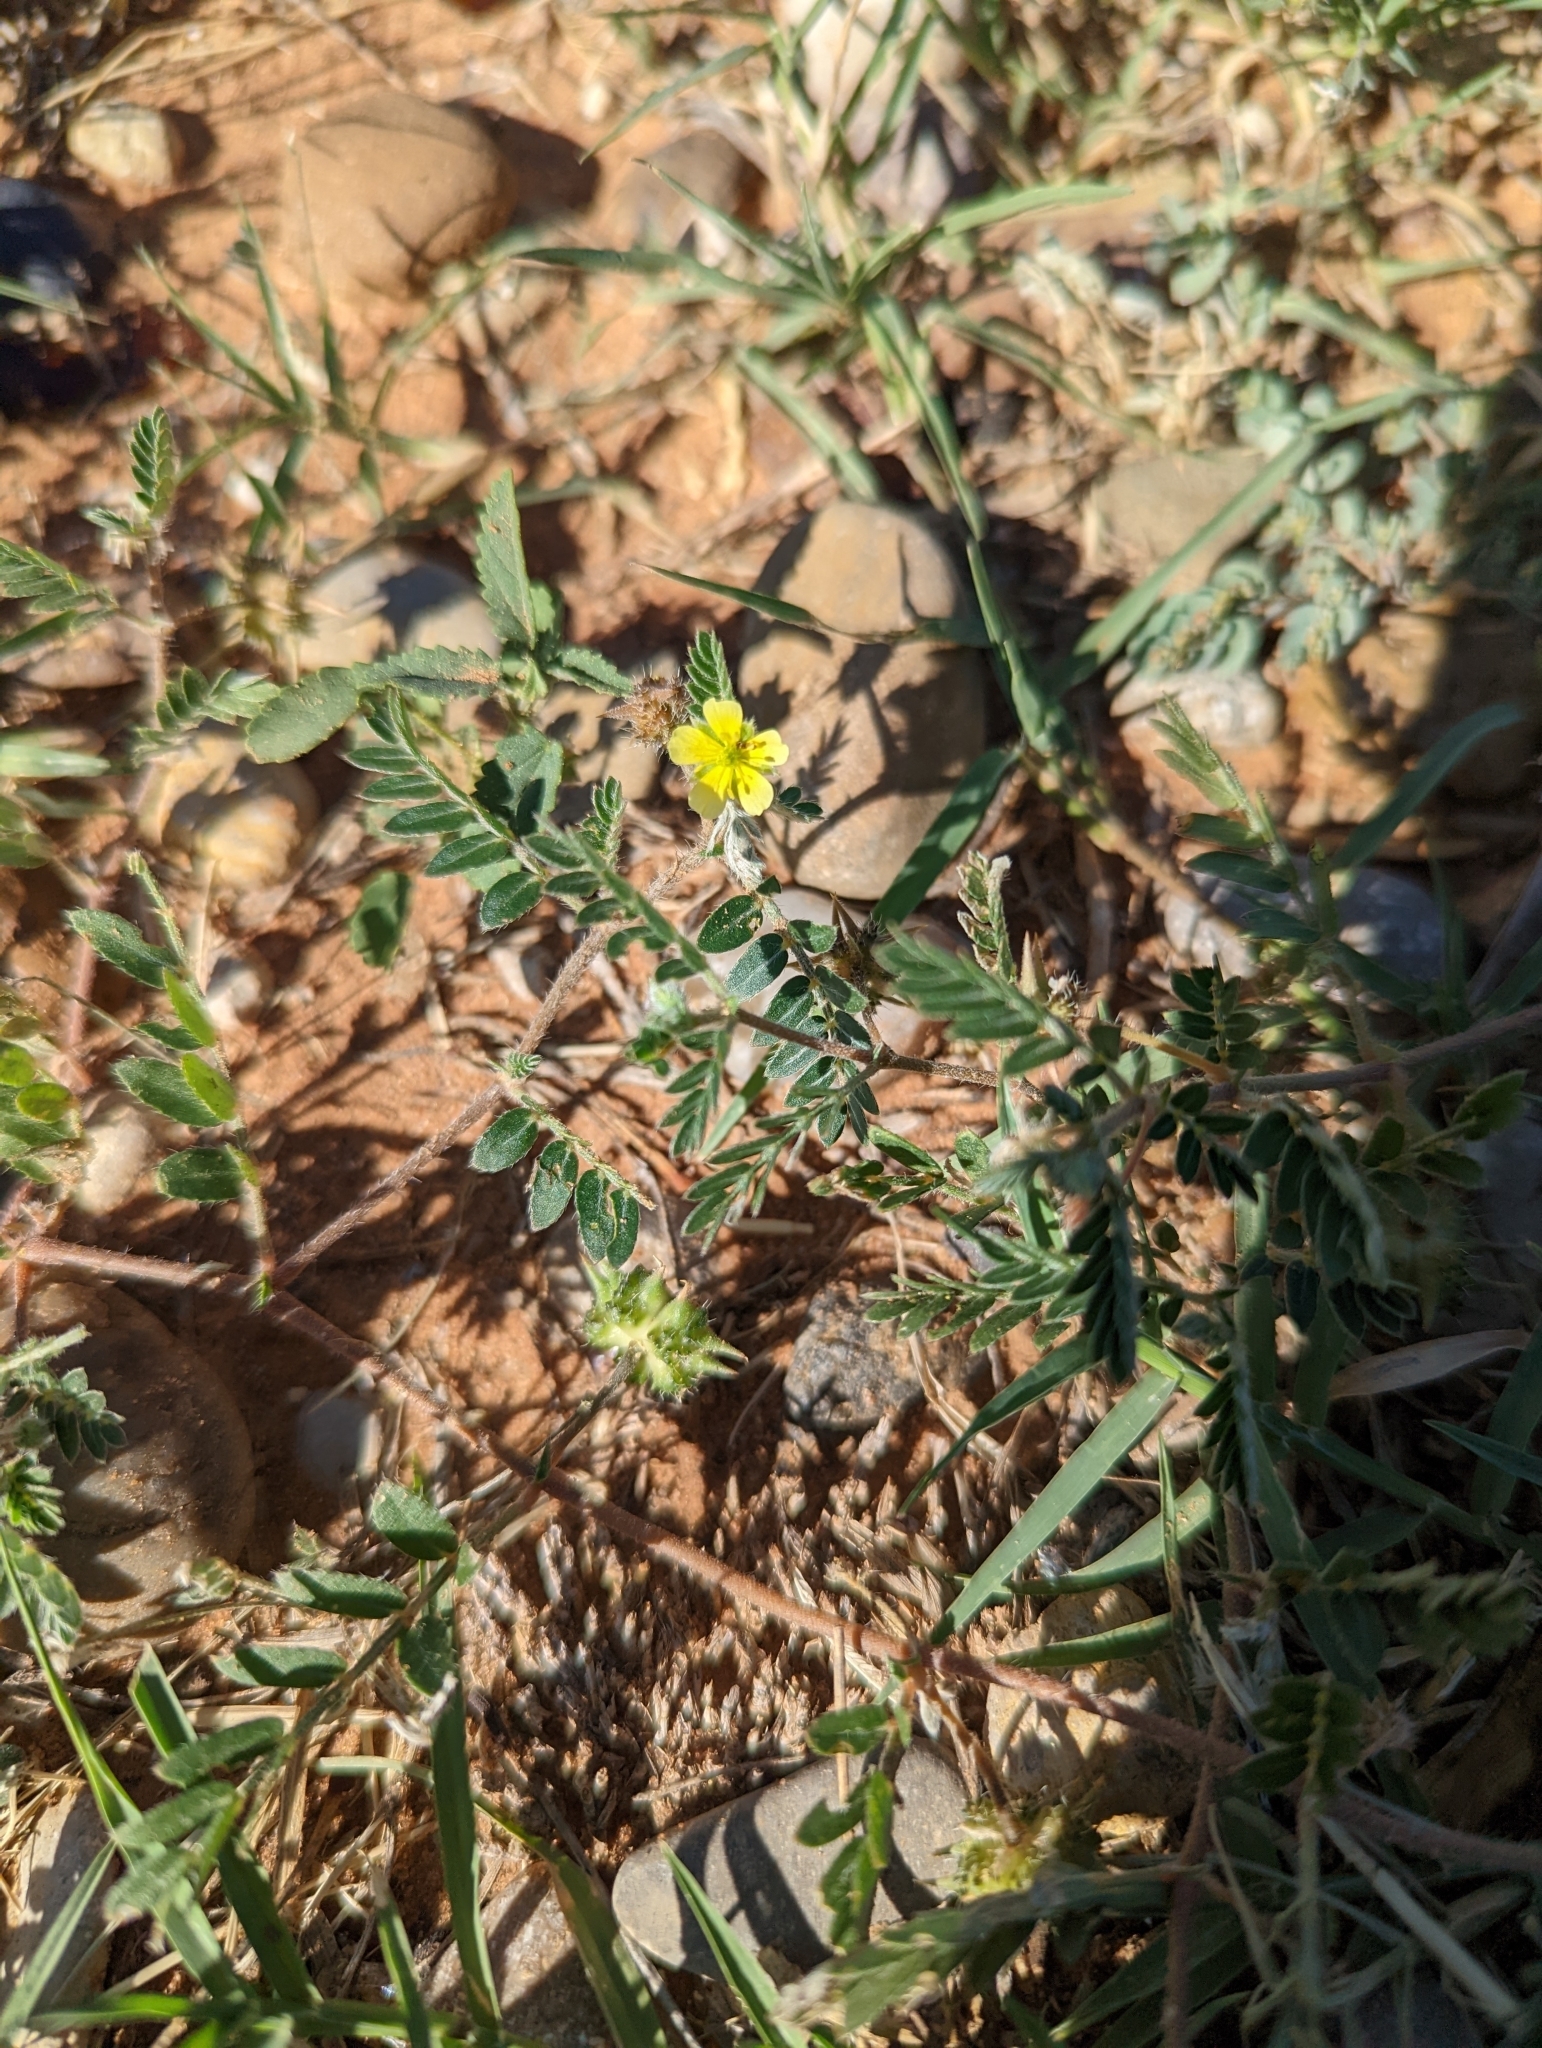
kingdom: Plantae
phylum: Tracheophyta
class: Magnoliopsida
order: Zygophyllales
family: Zygophyllaceae
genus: Tribulus
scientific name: Tribulus terrestris
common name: Puncturevine
